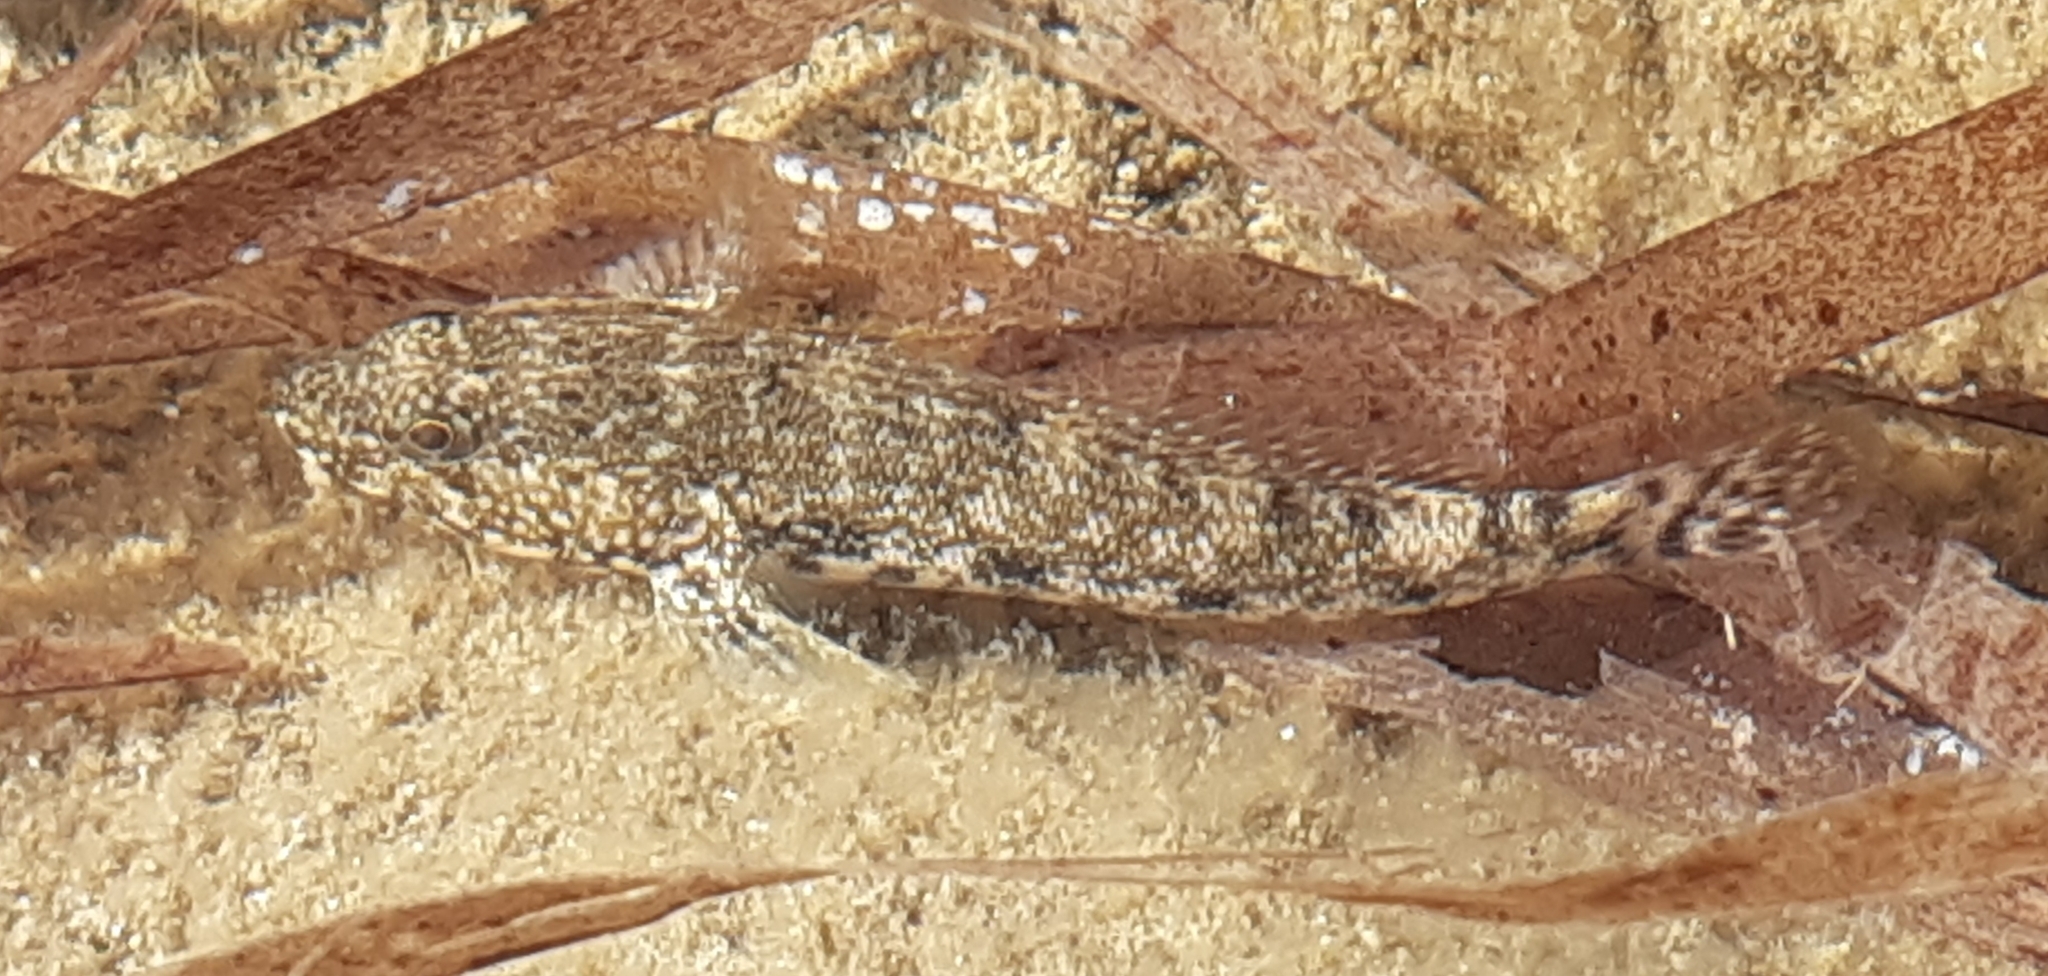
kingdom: Animalia
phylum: Chordata
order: Perciformes
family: Gobiidae
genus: Gobius
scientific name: Gobius cobitis
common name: Giant goby
